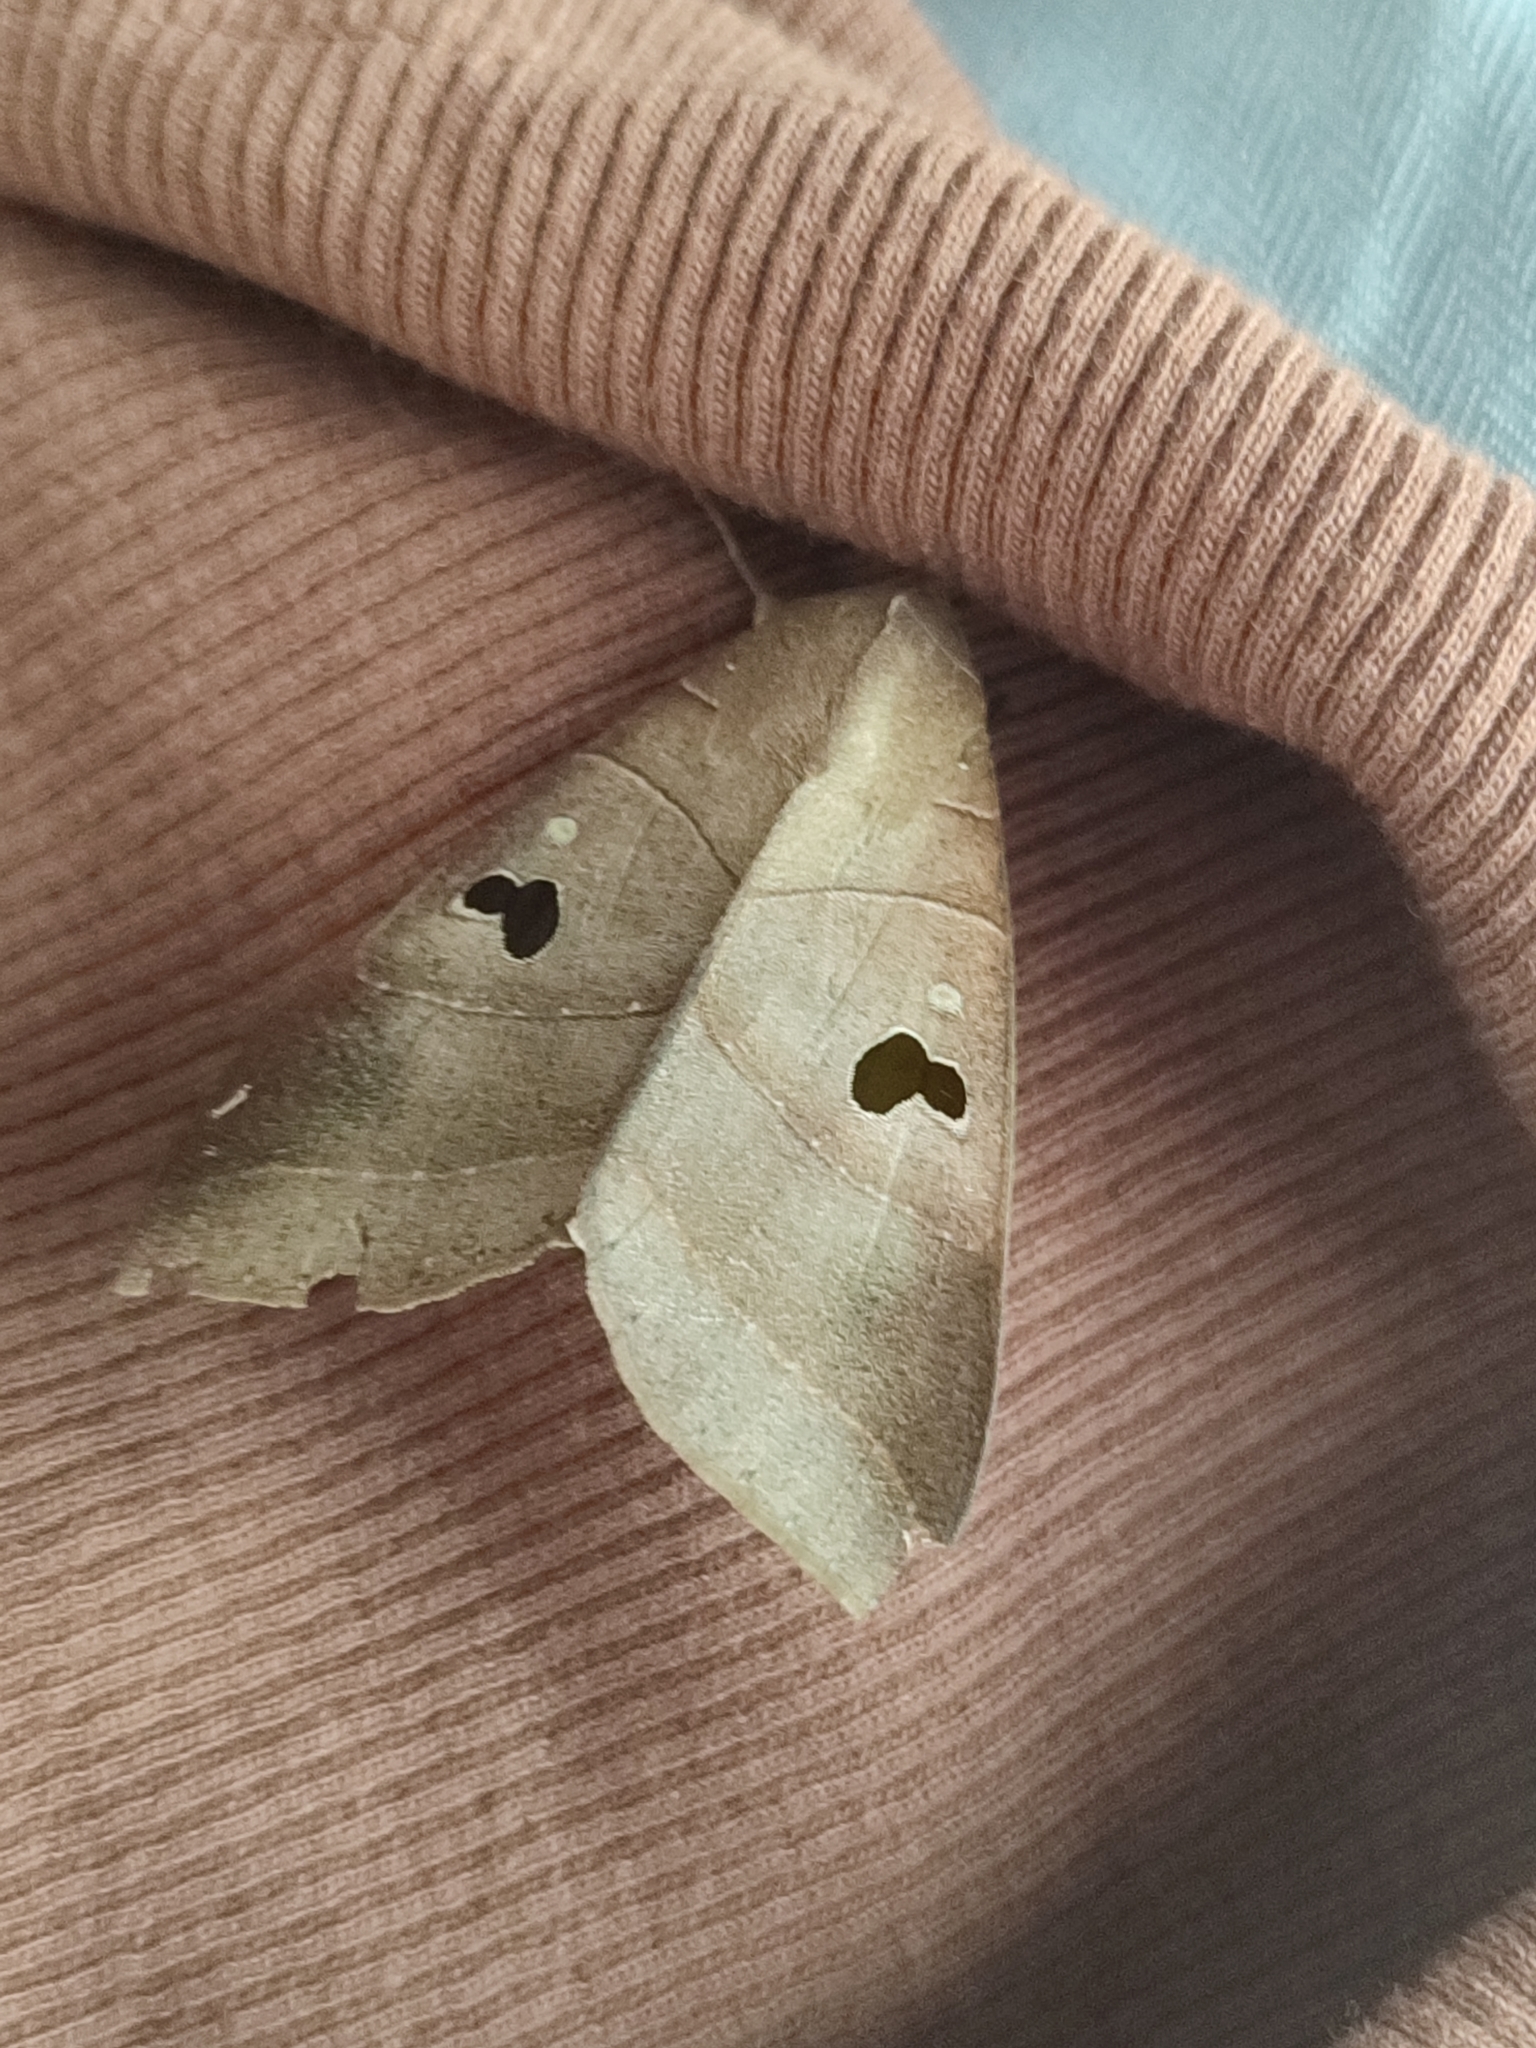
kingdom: Animalia
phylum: Arthropoda
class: Insecta
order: Lepidoptera
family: Erebidae
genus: Thyas
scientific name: Thyas coronata
